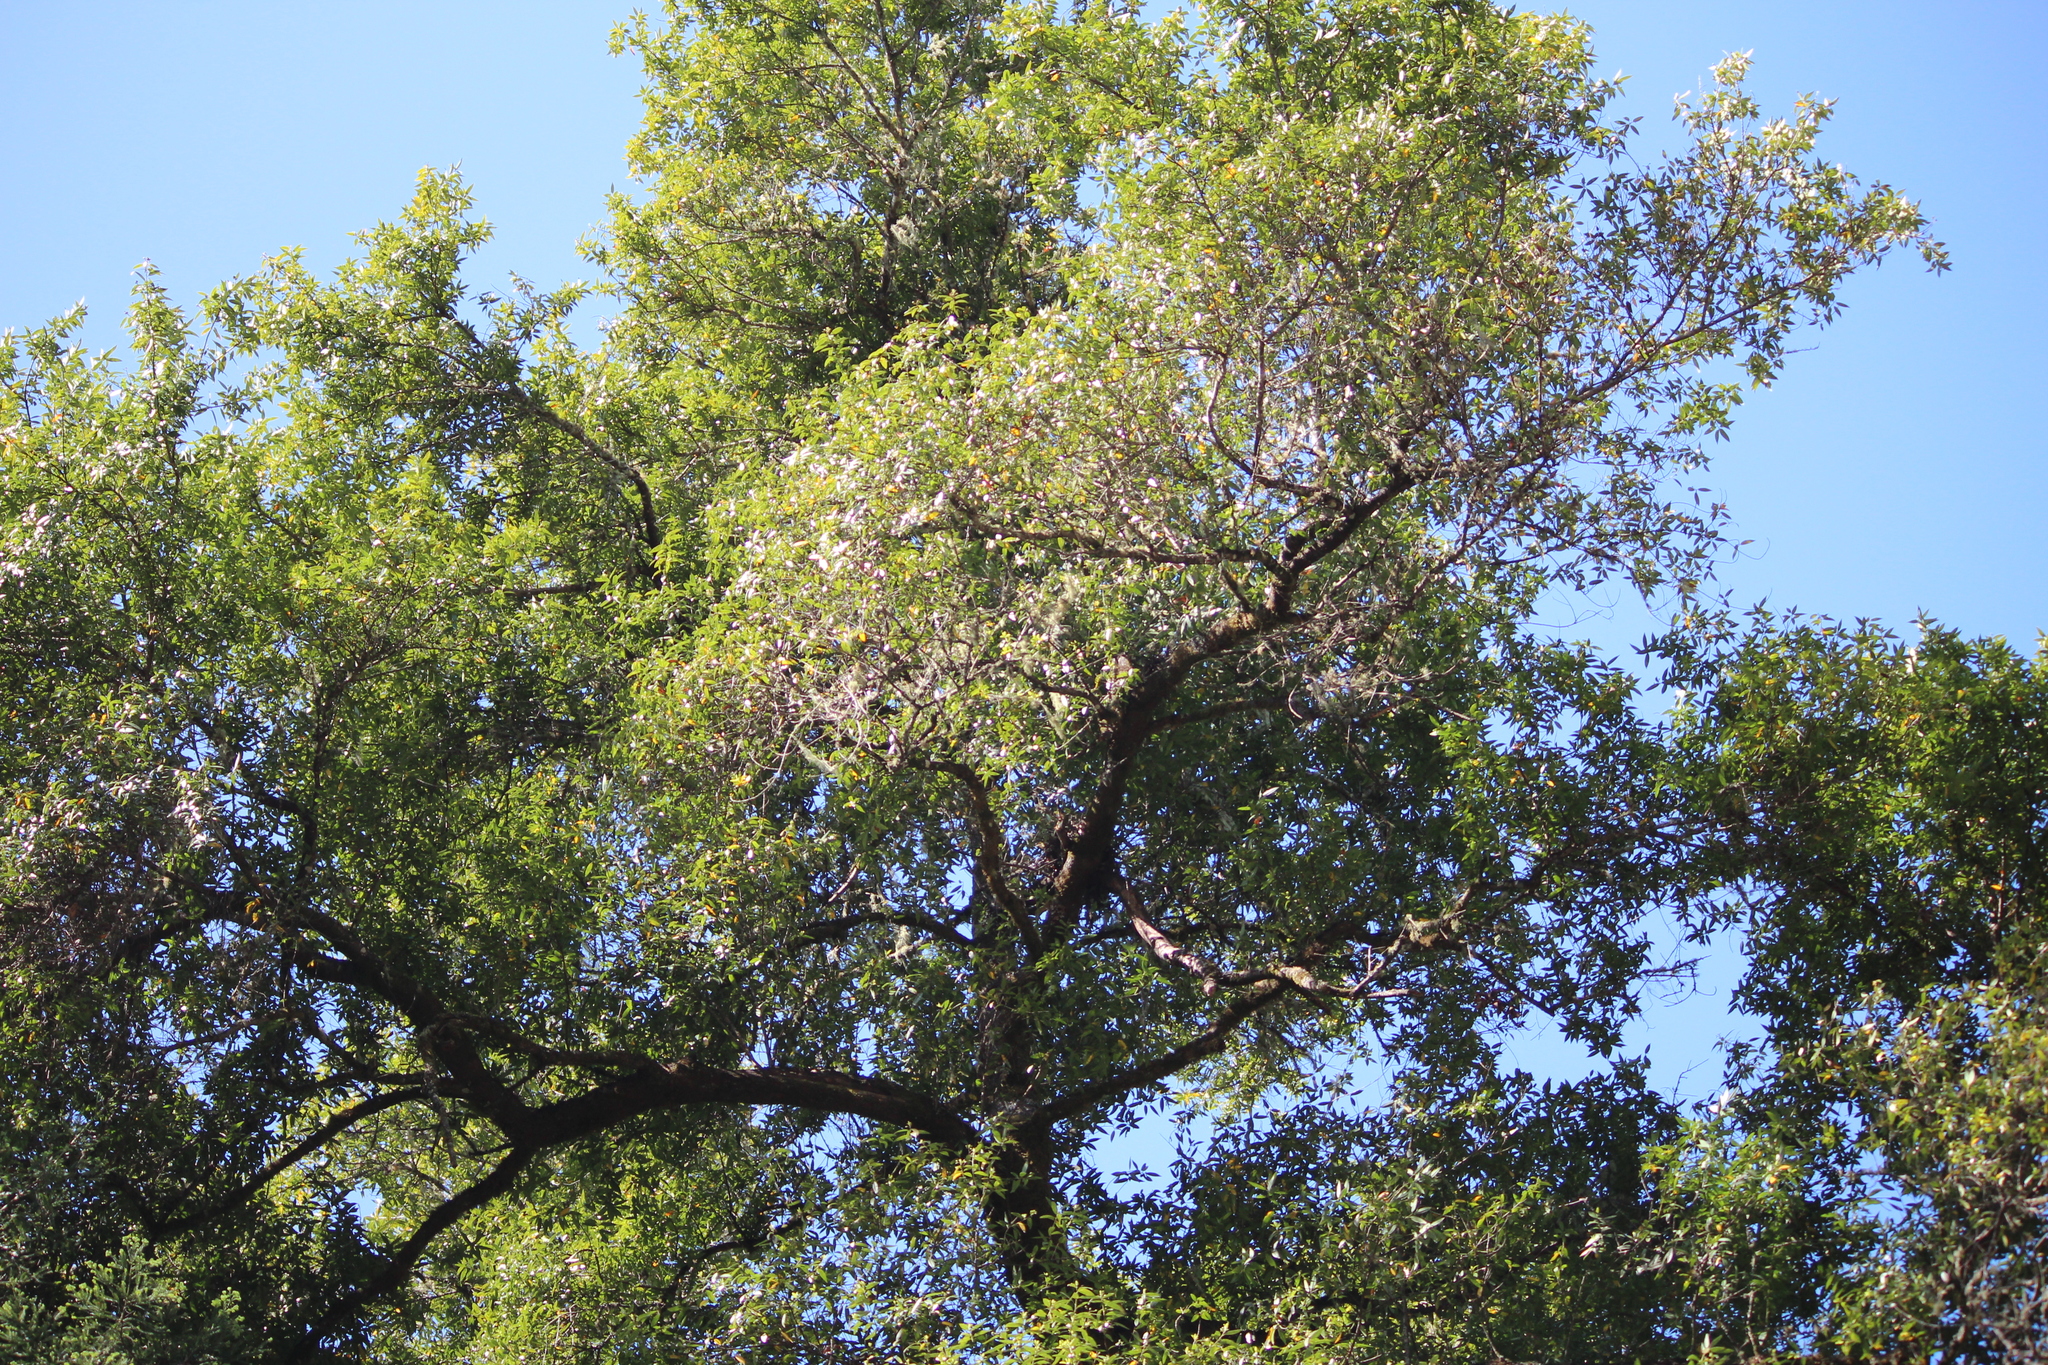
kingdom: Plantae
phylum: Tracheophyta
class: Magnoliopsida
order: Laurales
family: Lauraceae
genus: Umbellularia
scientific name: Umbellularia californica
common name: California bay
